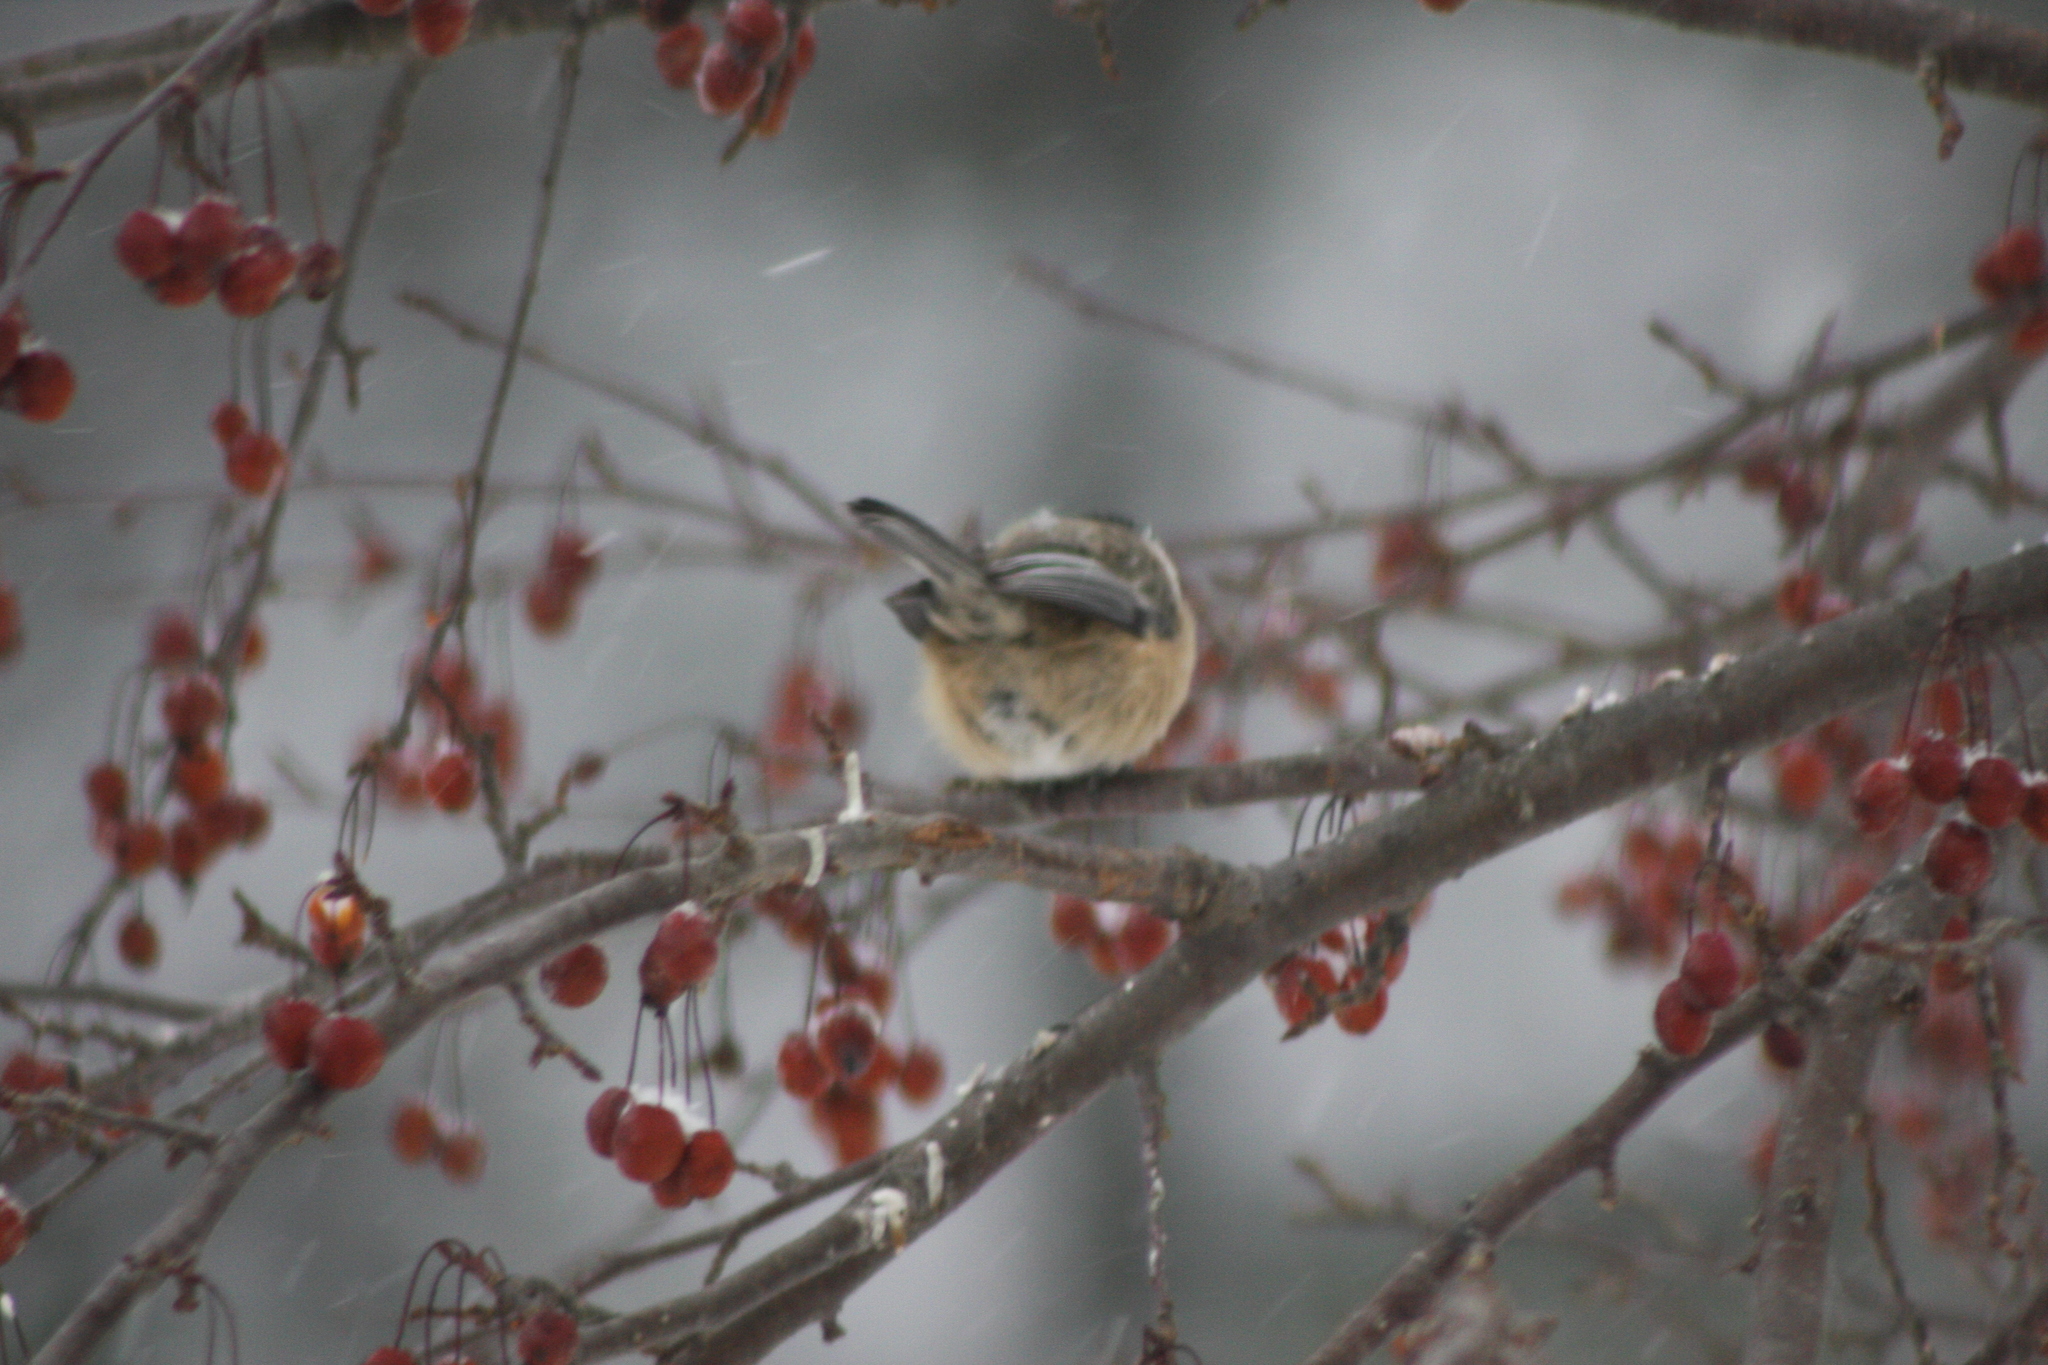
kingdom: Animalia
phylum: Chordata
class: Aves
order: Passeriformes
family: Paridae
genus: Poecile
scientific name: Poecile atricapillus
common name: Black-capped chickadee
